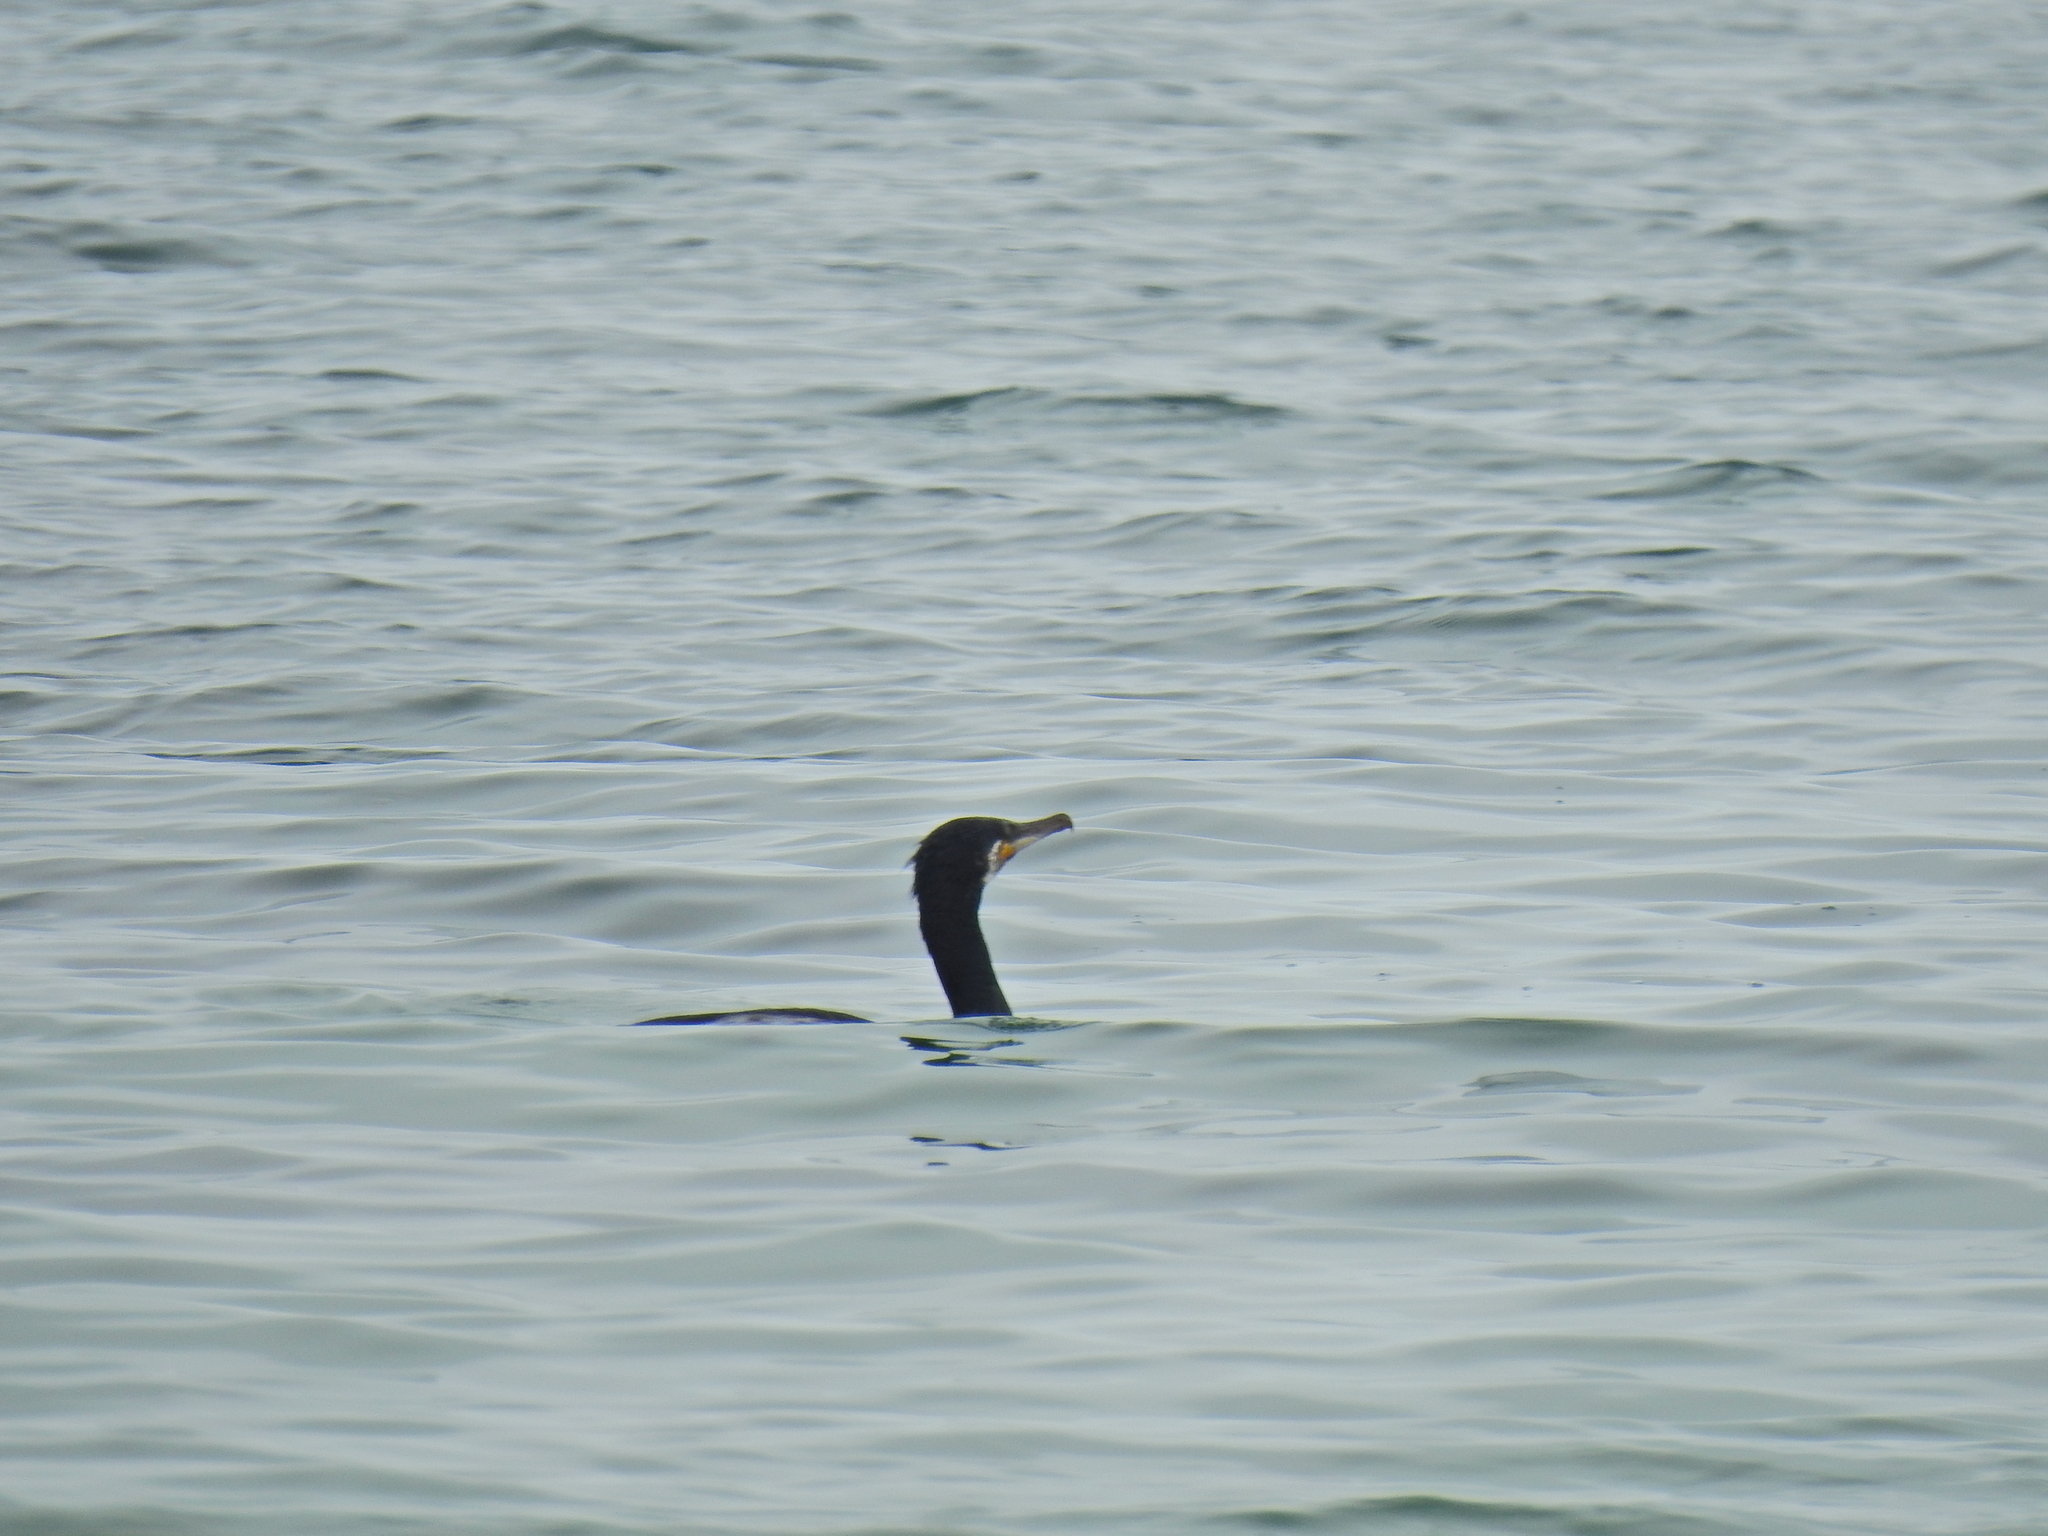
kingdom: Animalia
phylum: Chordata
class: Aves
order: Suliformes
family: Phalacrocoracidae
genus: Phalacrocorax
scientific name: Phalacrocorax carbo
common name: Great cormorant
